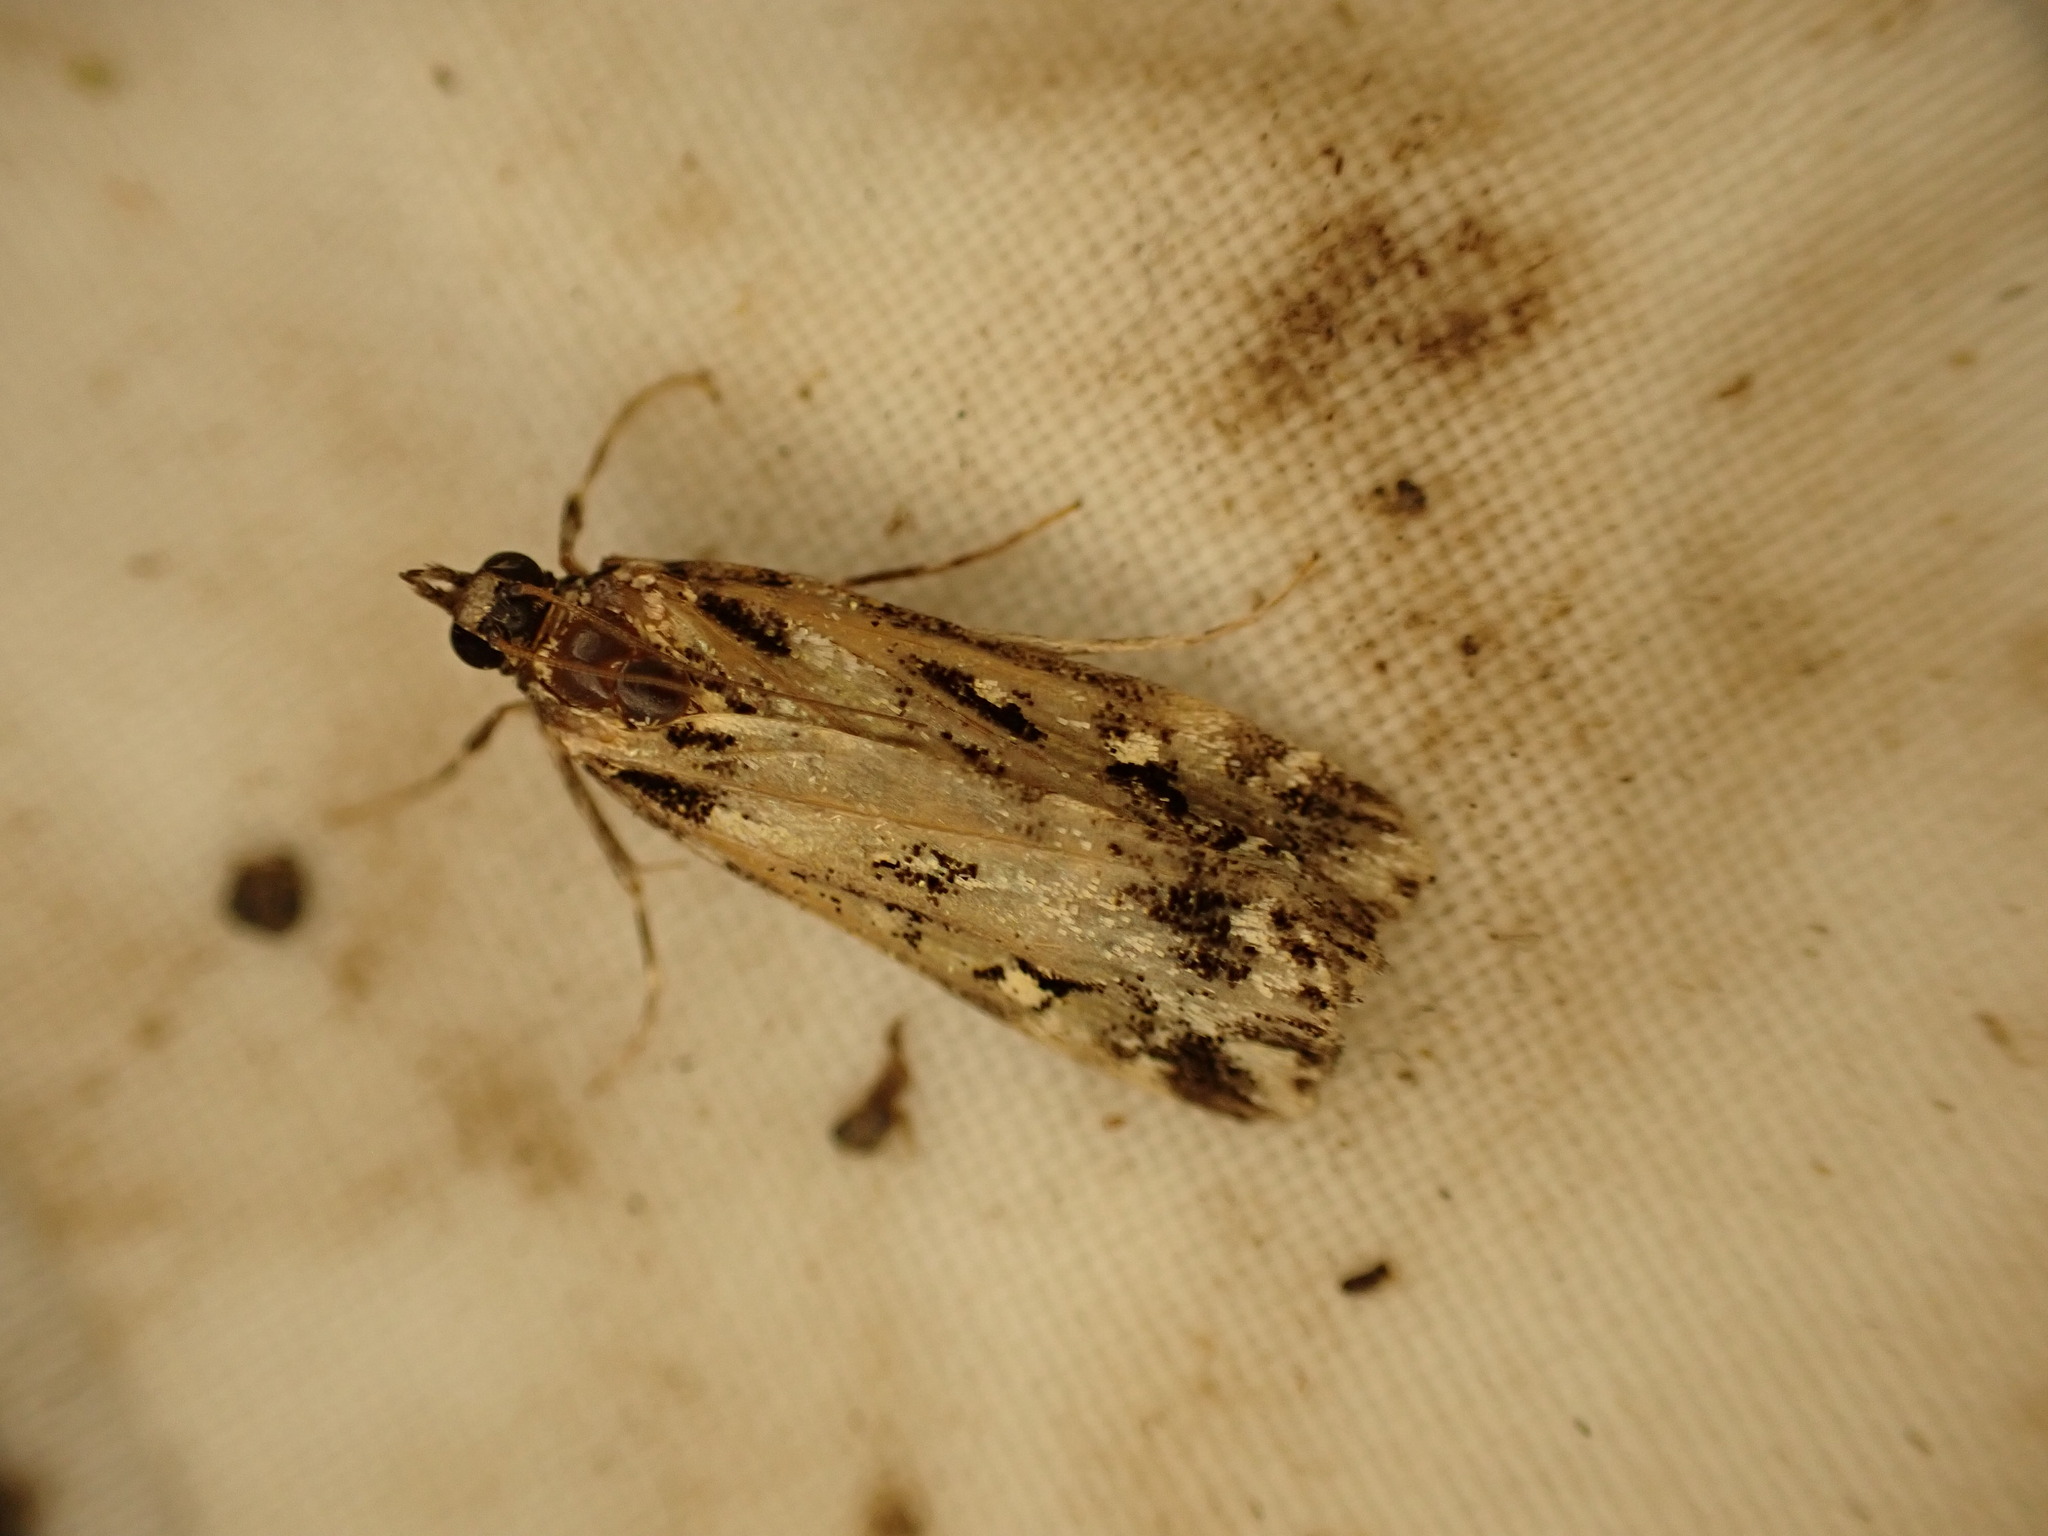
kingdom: Animalia
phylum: Arthropoda
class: Insecta
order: Lepidoptera
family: Crambidae
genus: Eudonia
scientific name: Eudonia diphtheralis
